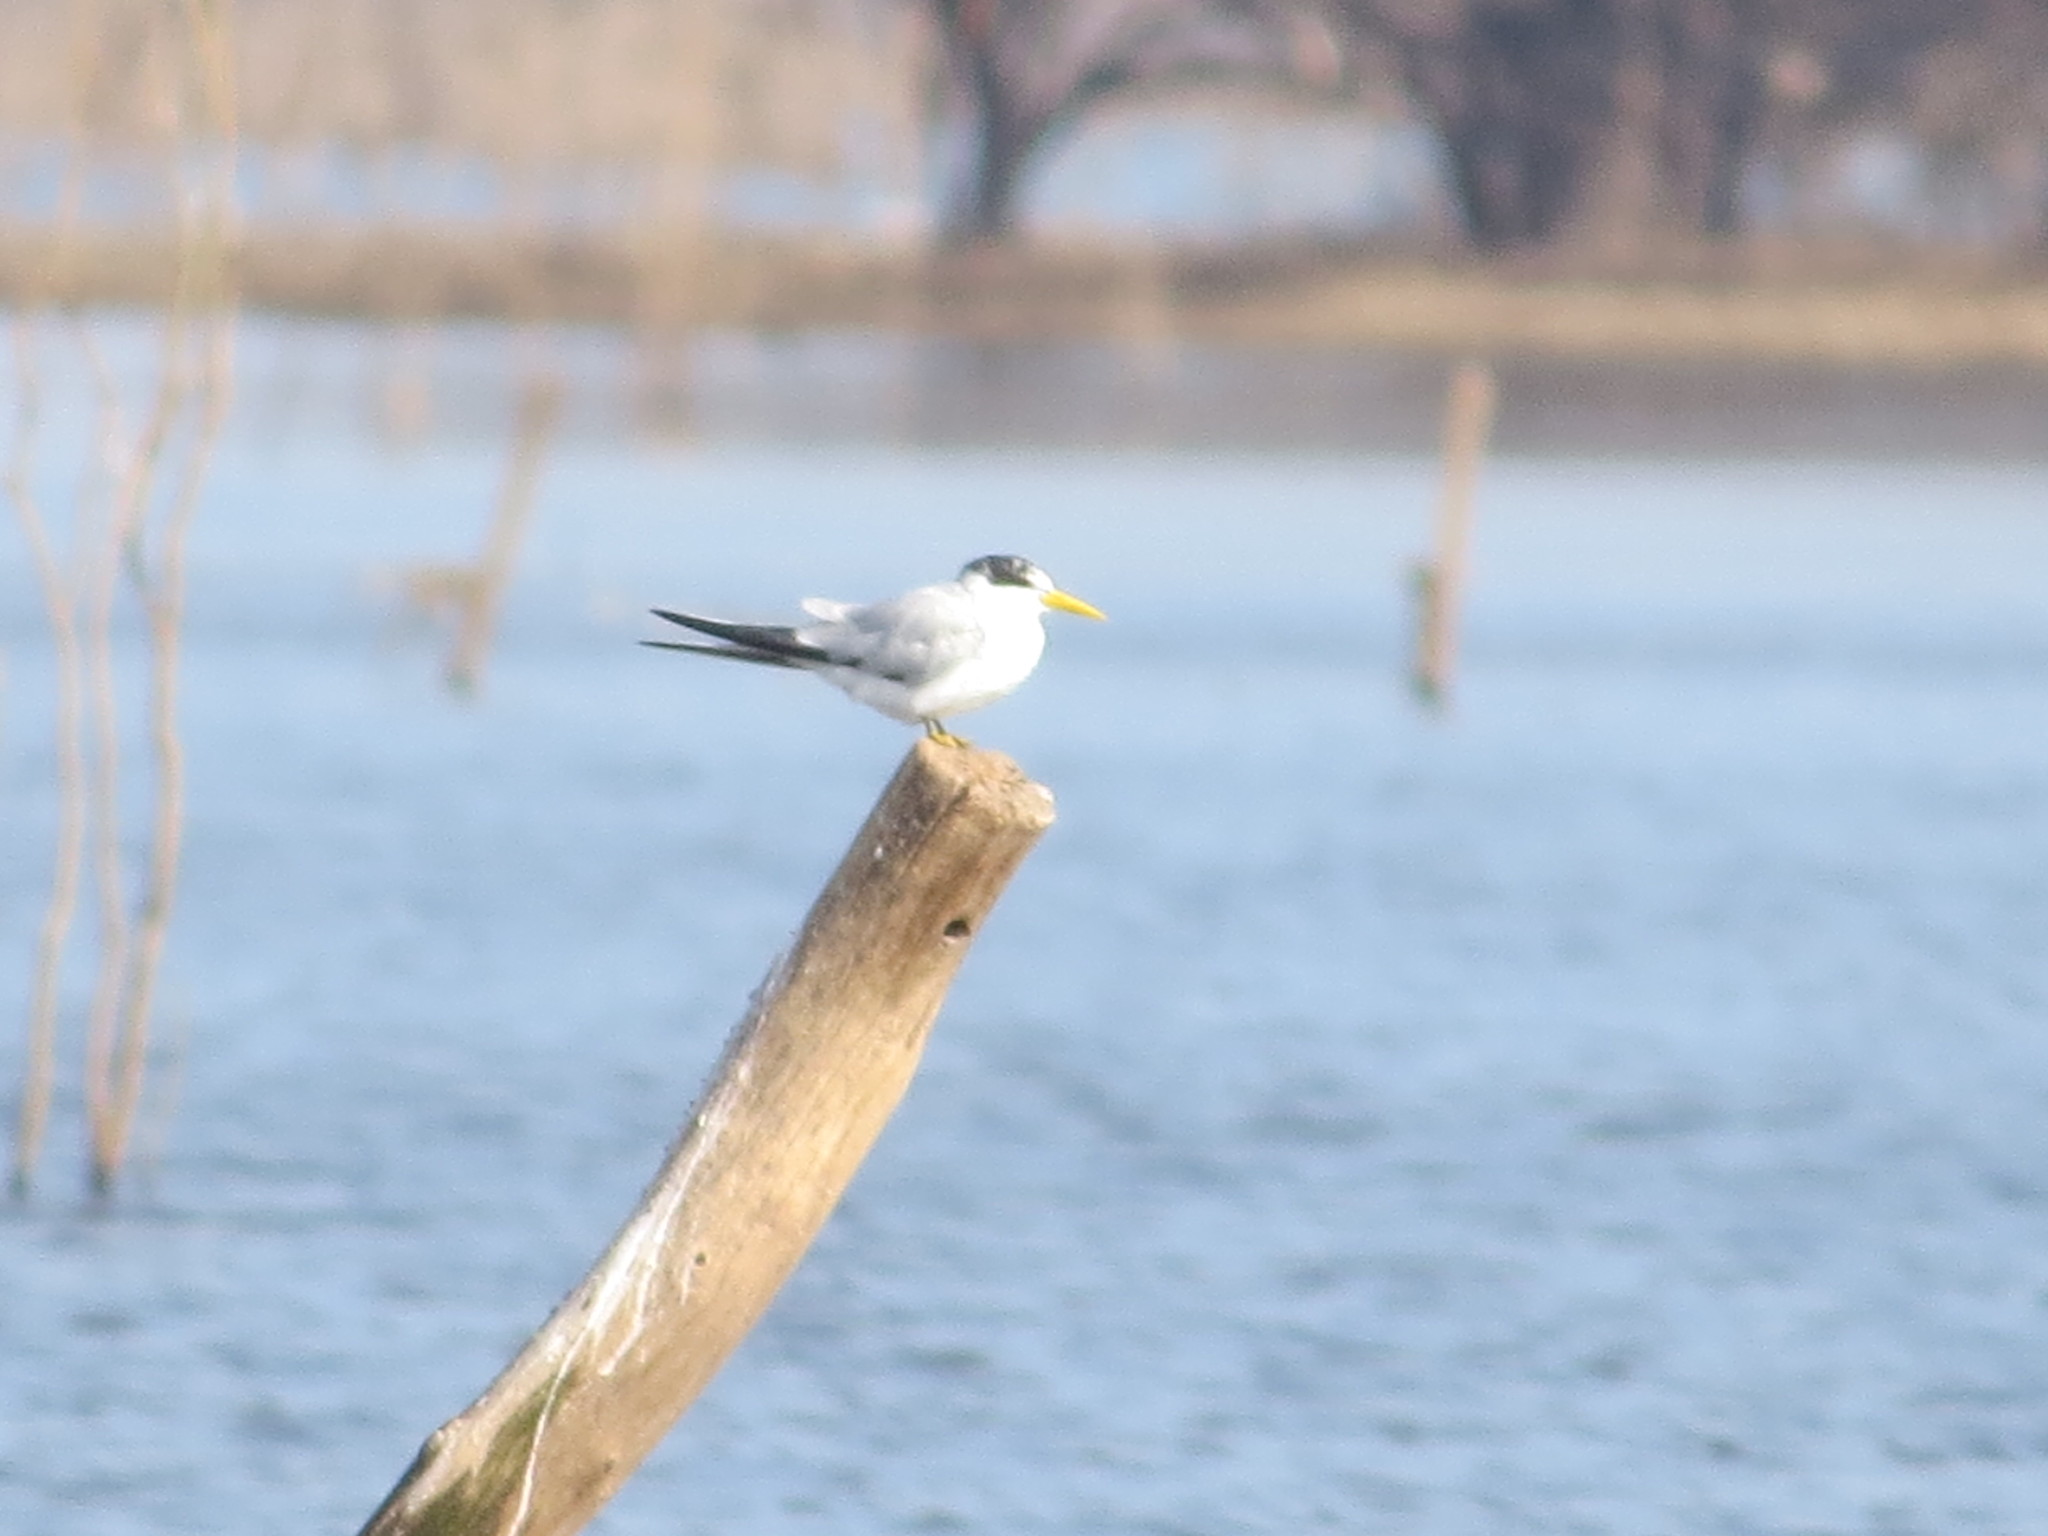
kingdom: Animalia
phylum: Chordata
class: Aves
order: Charadriiformes
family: Laridae
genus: Sternula
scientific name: Sternula superciliaris
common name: Yellow-billed tern
